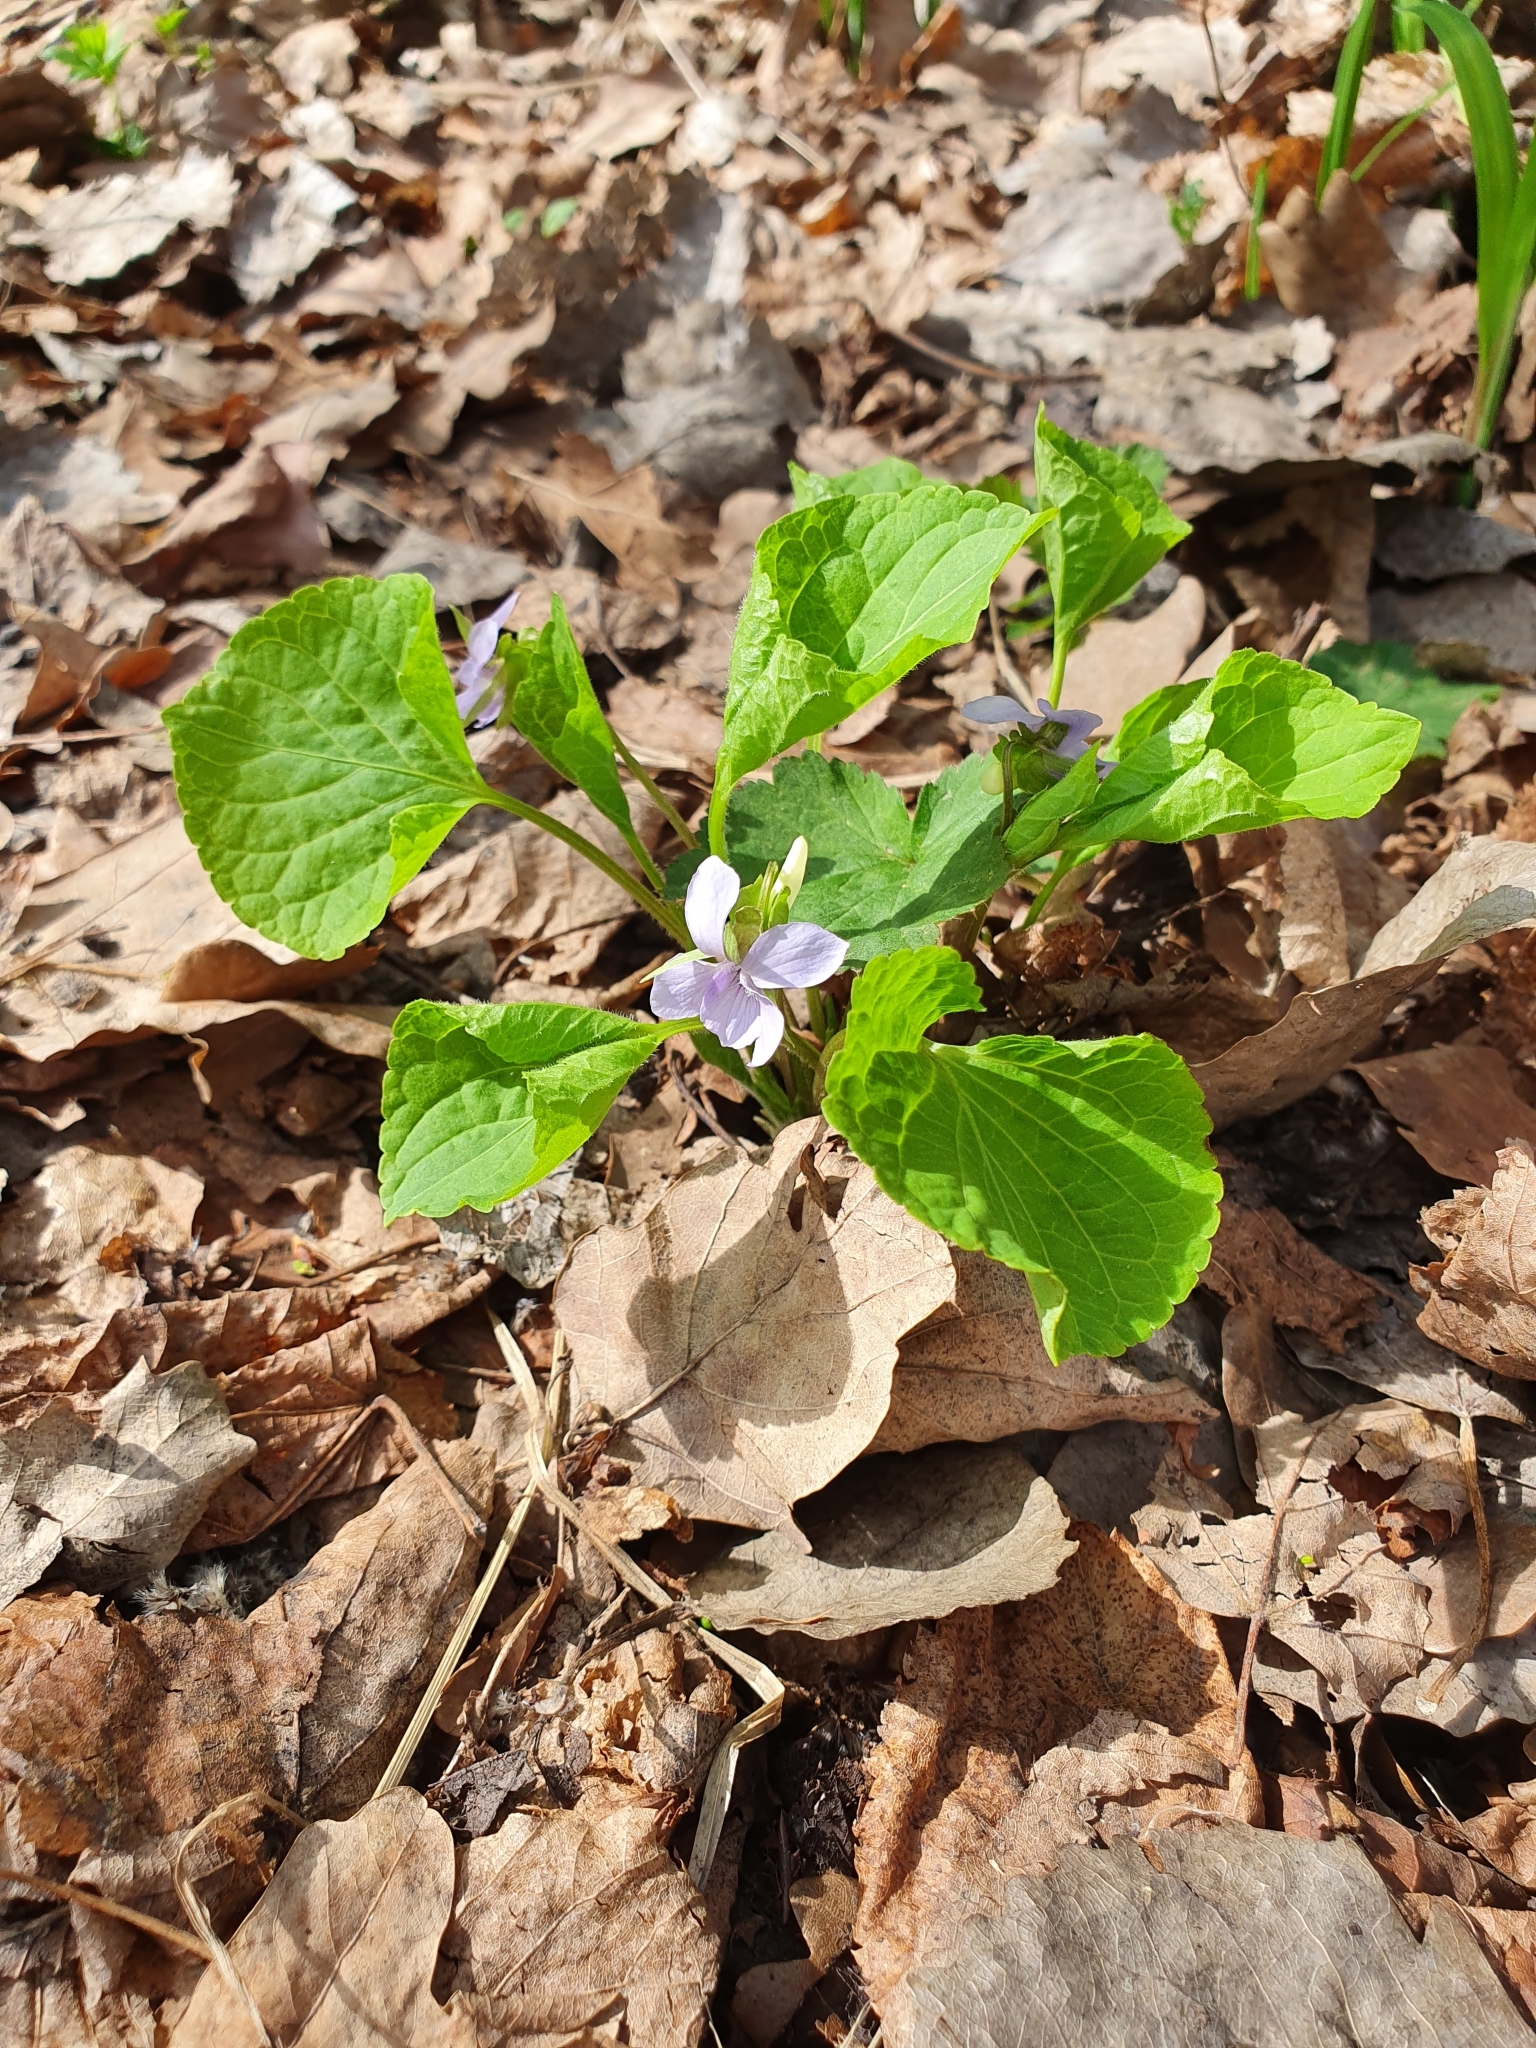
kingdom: Plantae
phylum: Tracheophyta
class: Magnoliopsida
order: Malpighiales
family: Violaceae
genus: Viola
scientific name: Viola mirabilis
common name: Wonder violet
